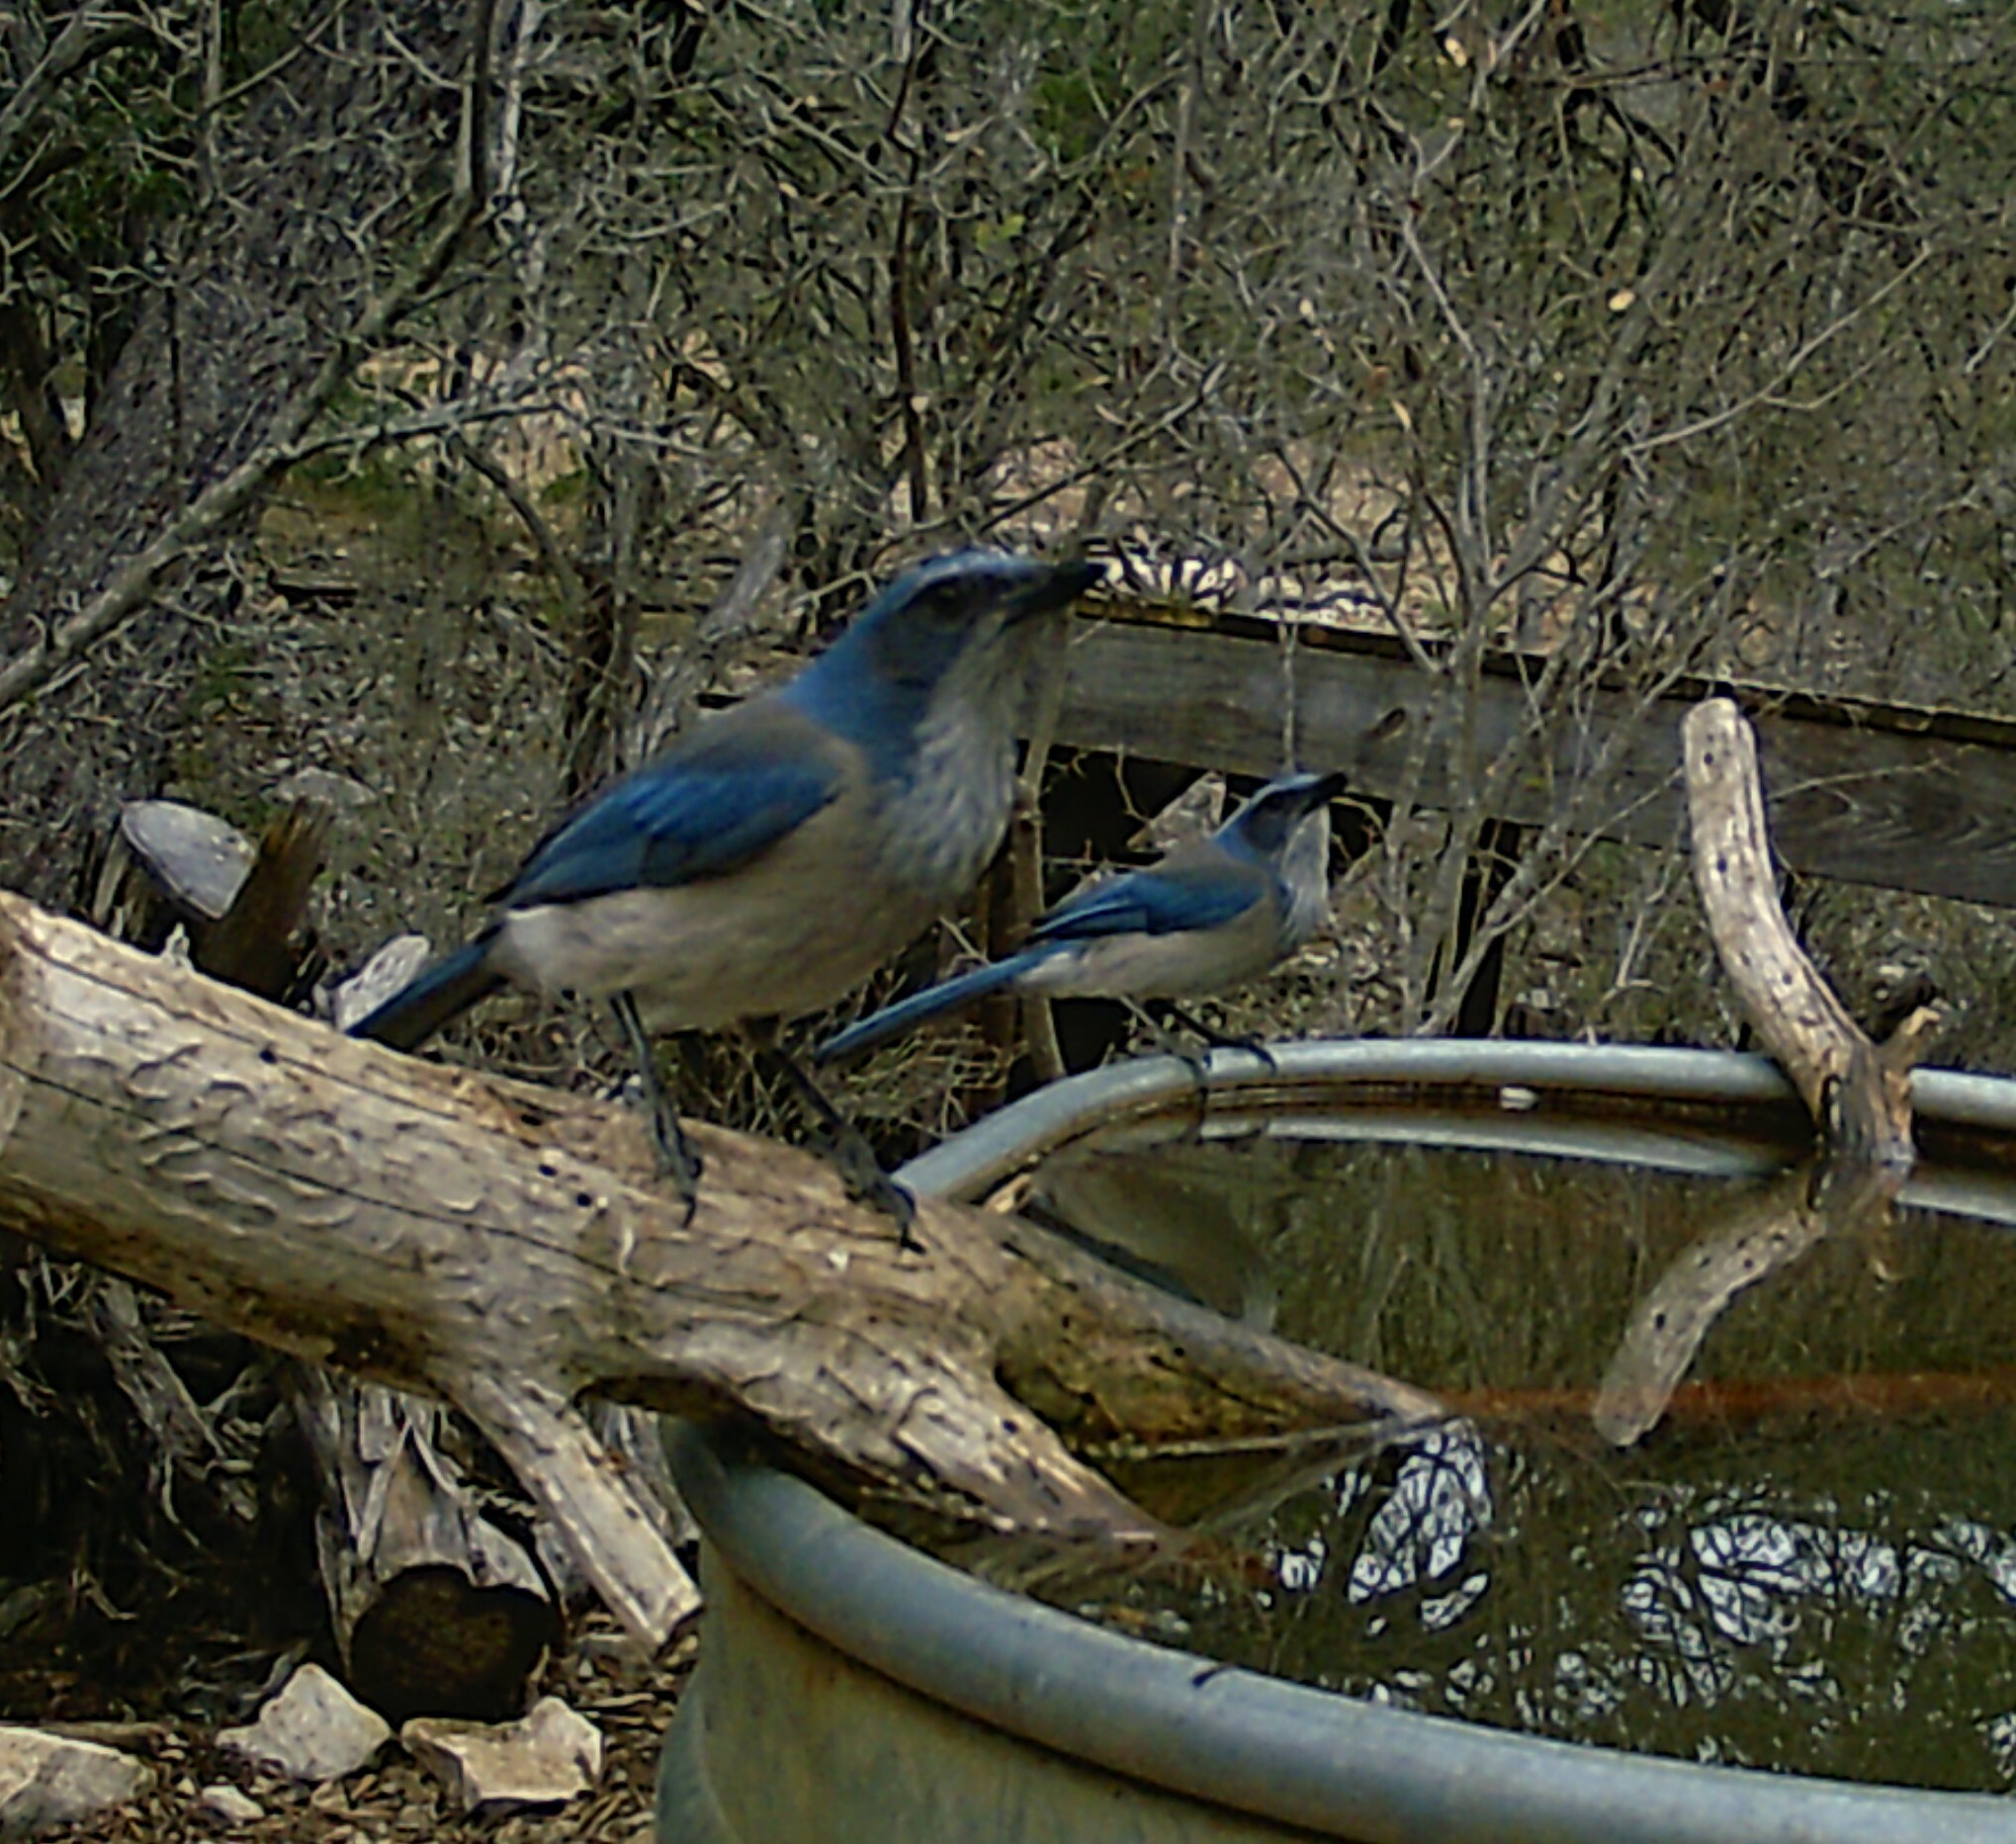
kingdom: Animalia
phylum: Chordata
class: Aves
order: Passeriformes
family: Corvidae
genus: Aphelocoma
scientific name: Aphelocoma woodhouseii
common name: Woodhouse's scrub-jay
